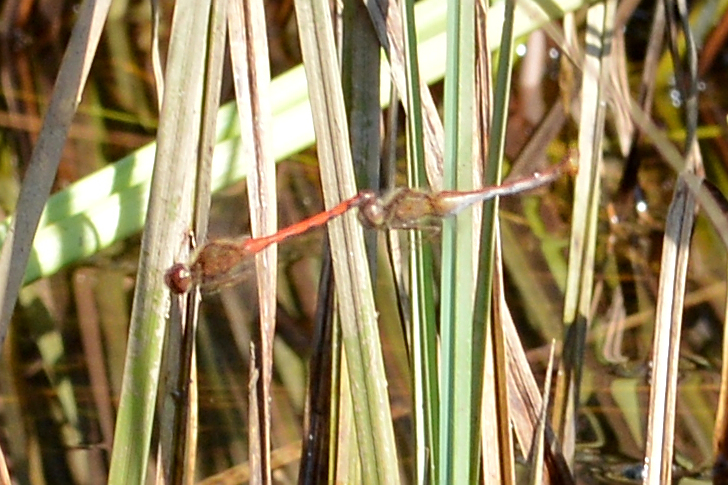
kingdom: Animalia
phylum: Arthropoda
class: Insecta
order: Odonata
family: Libellulidae
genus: Sympetrum
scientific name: Sympetrum vicinum
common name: Autumn meadowhawk
